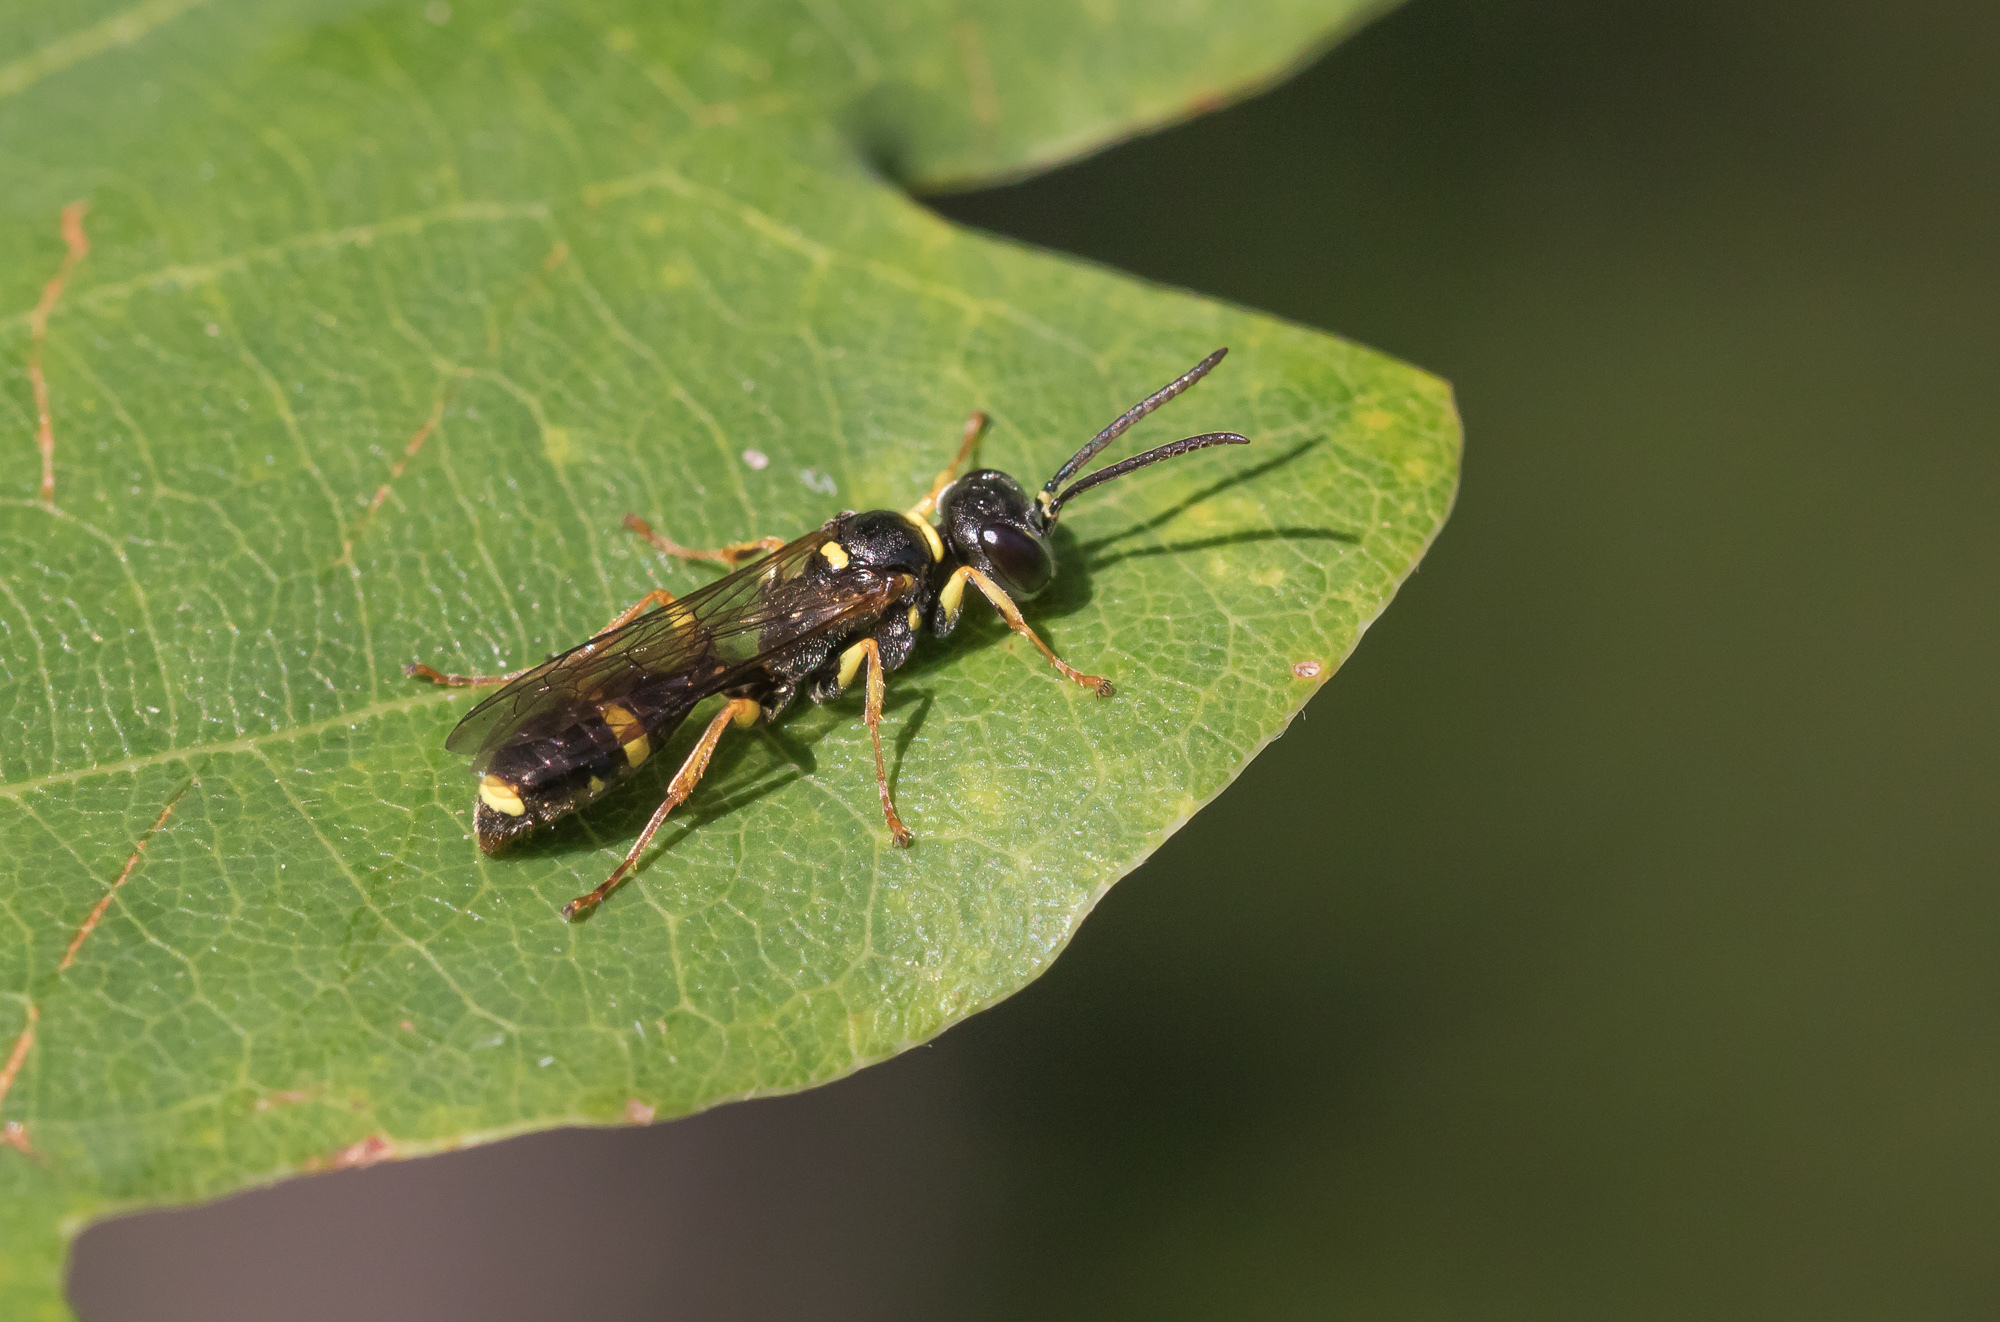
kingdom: Animalia
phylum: Arthropoda
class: Insecta
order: Hymenoptera
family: Crabronidae
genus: Mellinus
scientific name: Mellinus arvensis
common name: Field digger wasp
